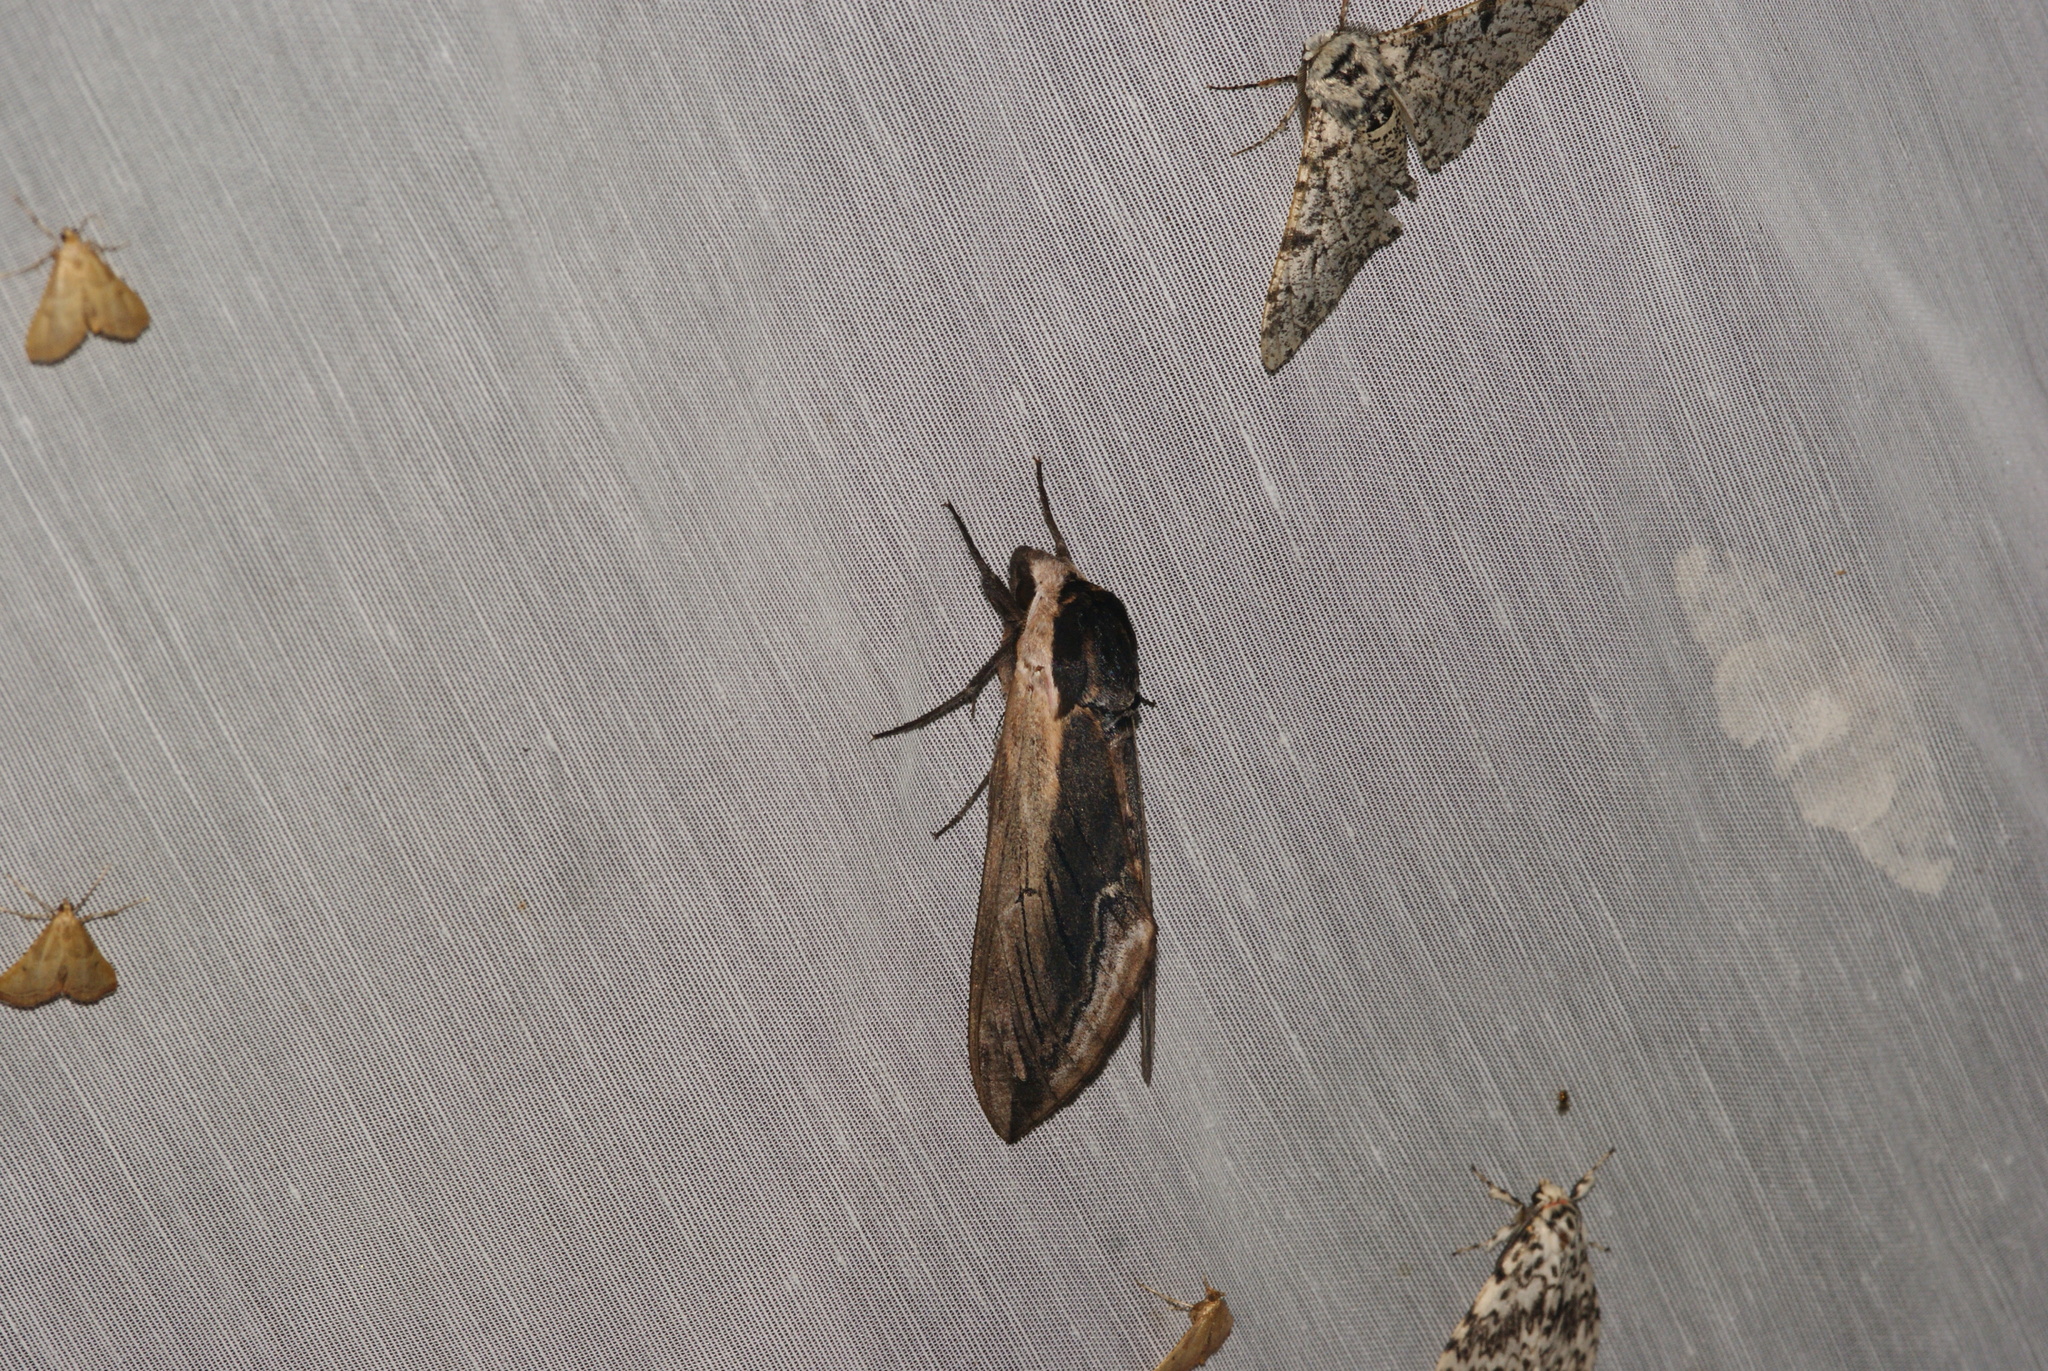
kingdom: Animalia
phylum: Arthropoda
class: Insecta
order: Lepidoptera
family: Sphingidae
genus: Sphinx
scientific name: Sphinx ligustri
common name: Privet hawk-moth
